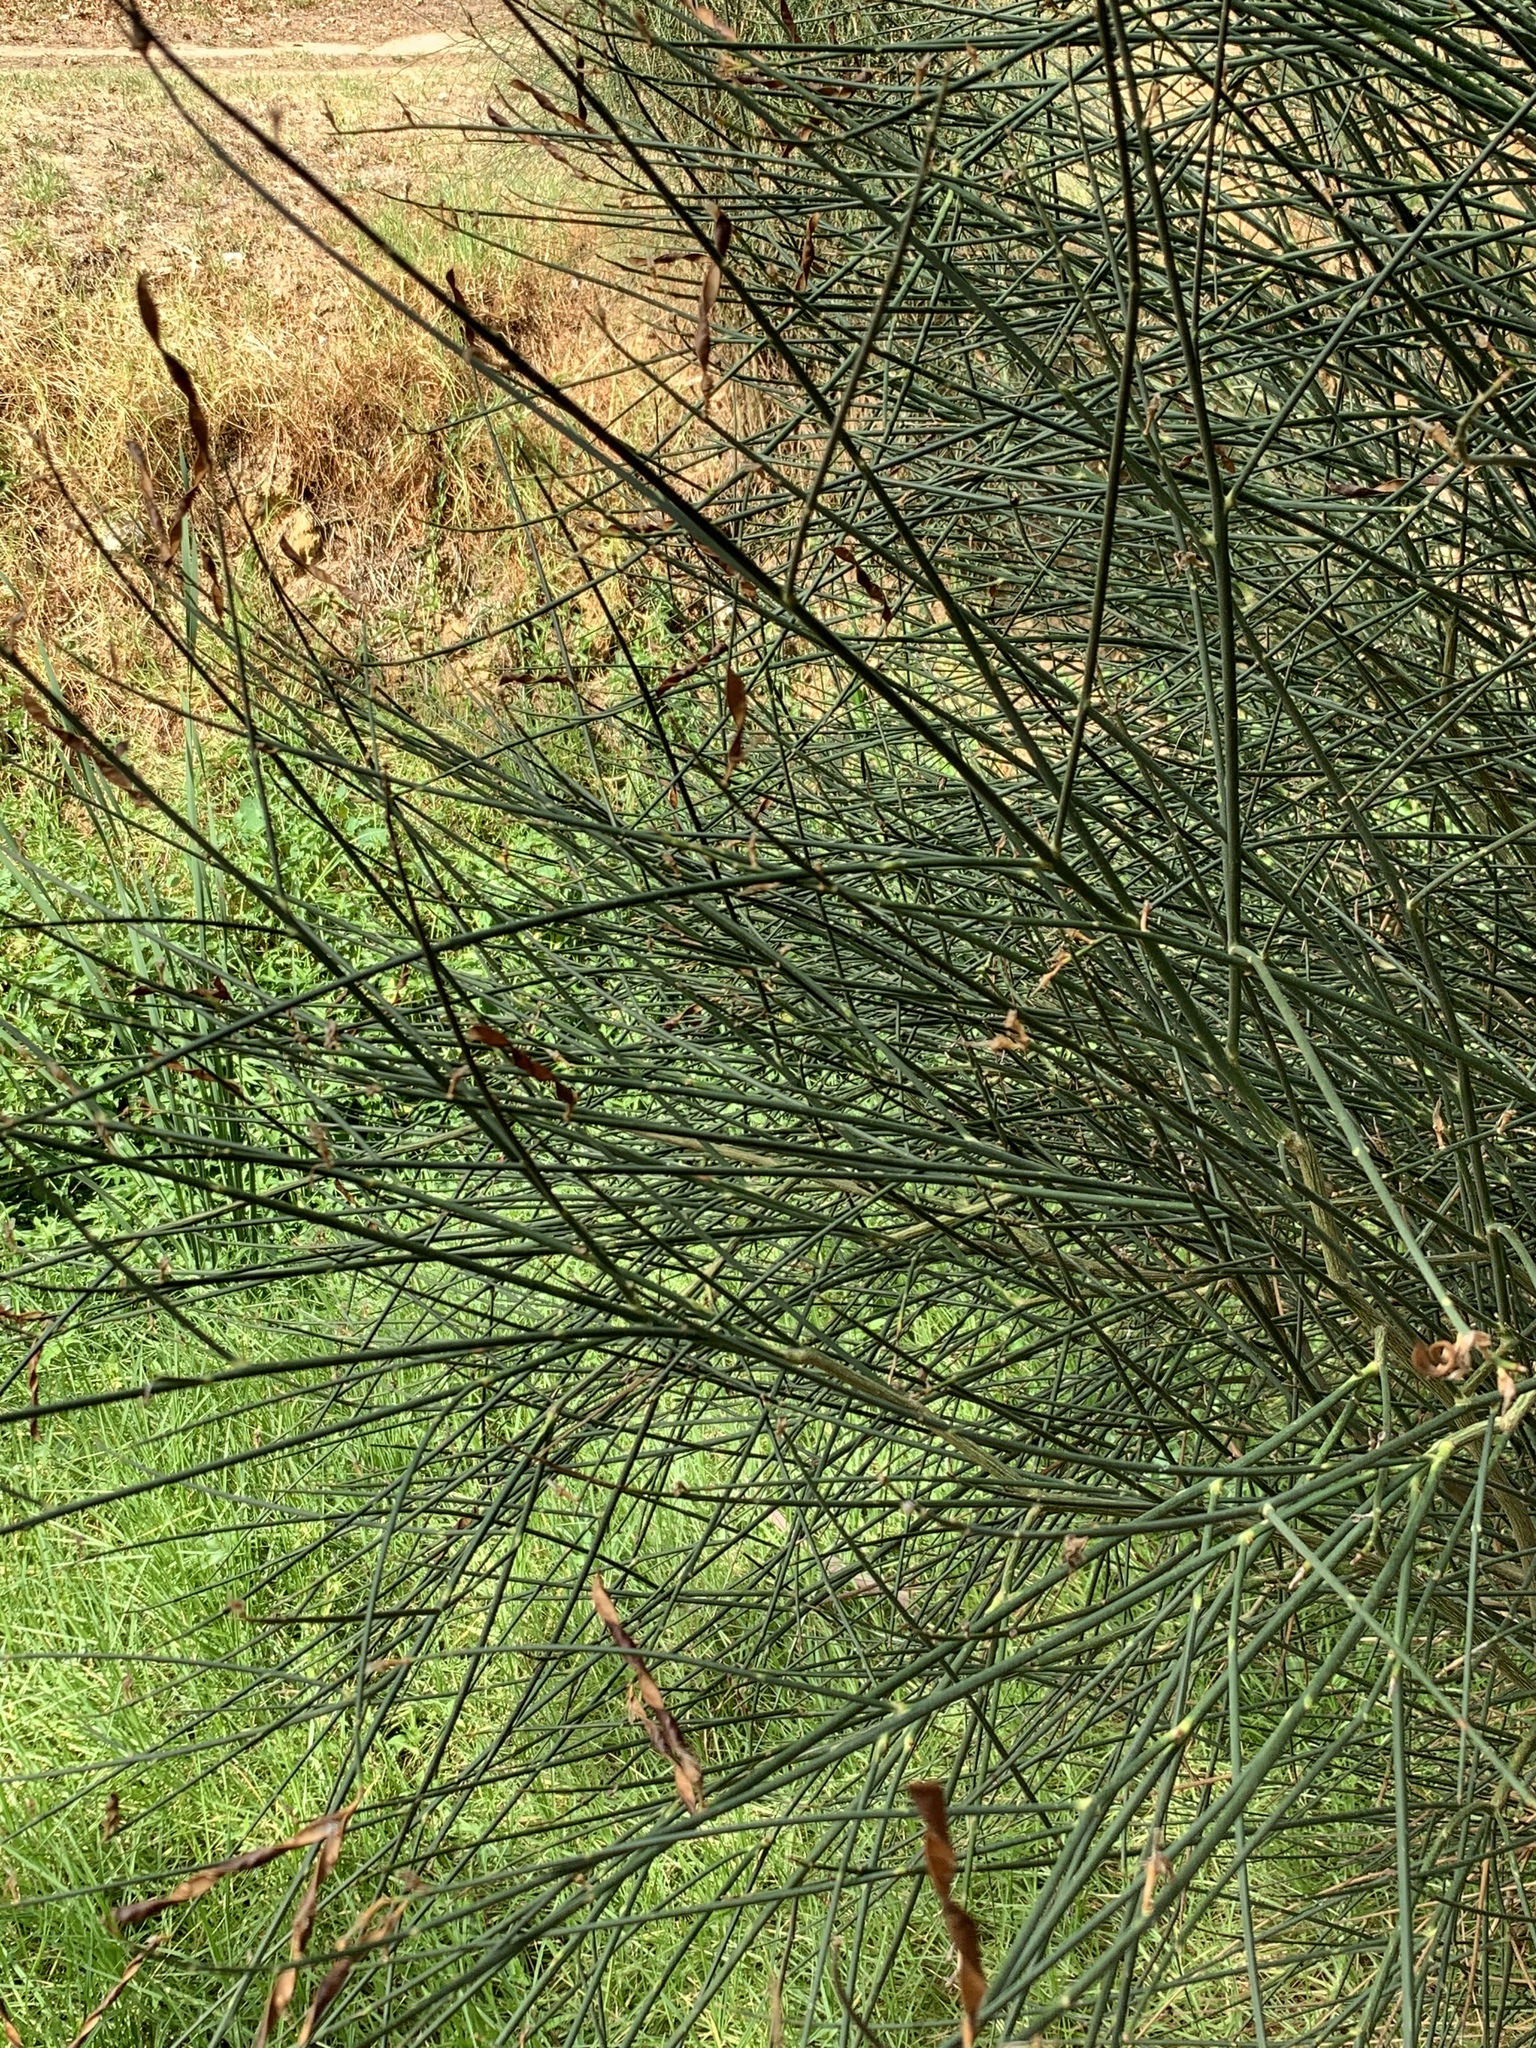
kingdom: Plantae
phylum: Tracheophyta
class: Magnoliopsida
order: Fabales
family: Fabaceae
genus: Spartium
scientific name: Spartium junceum
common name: Spanish broom
